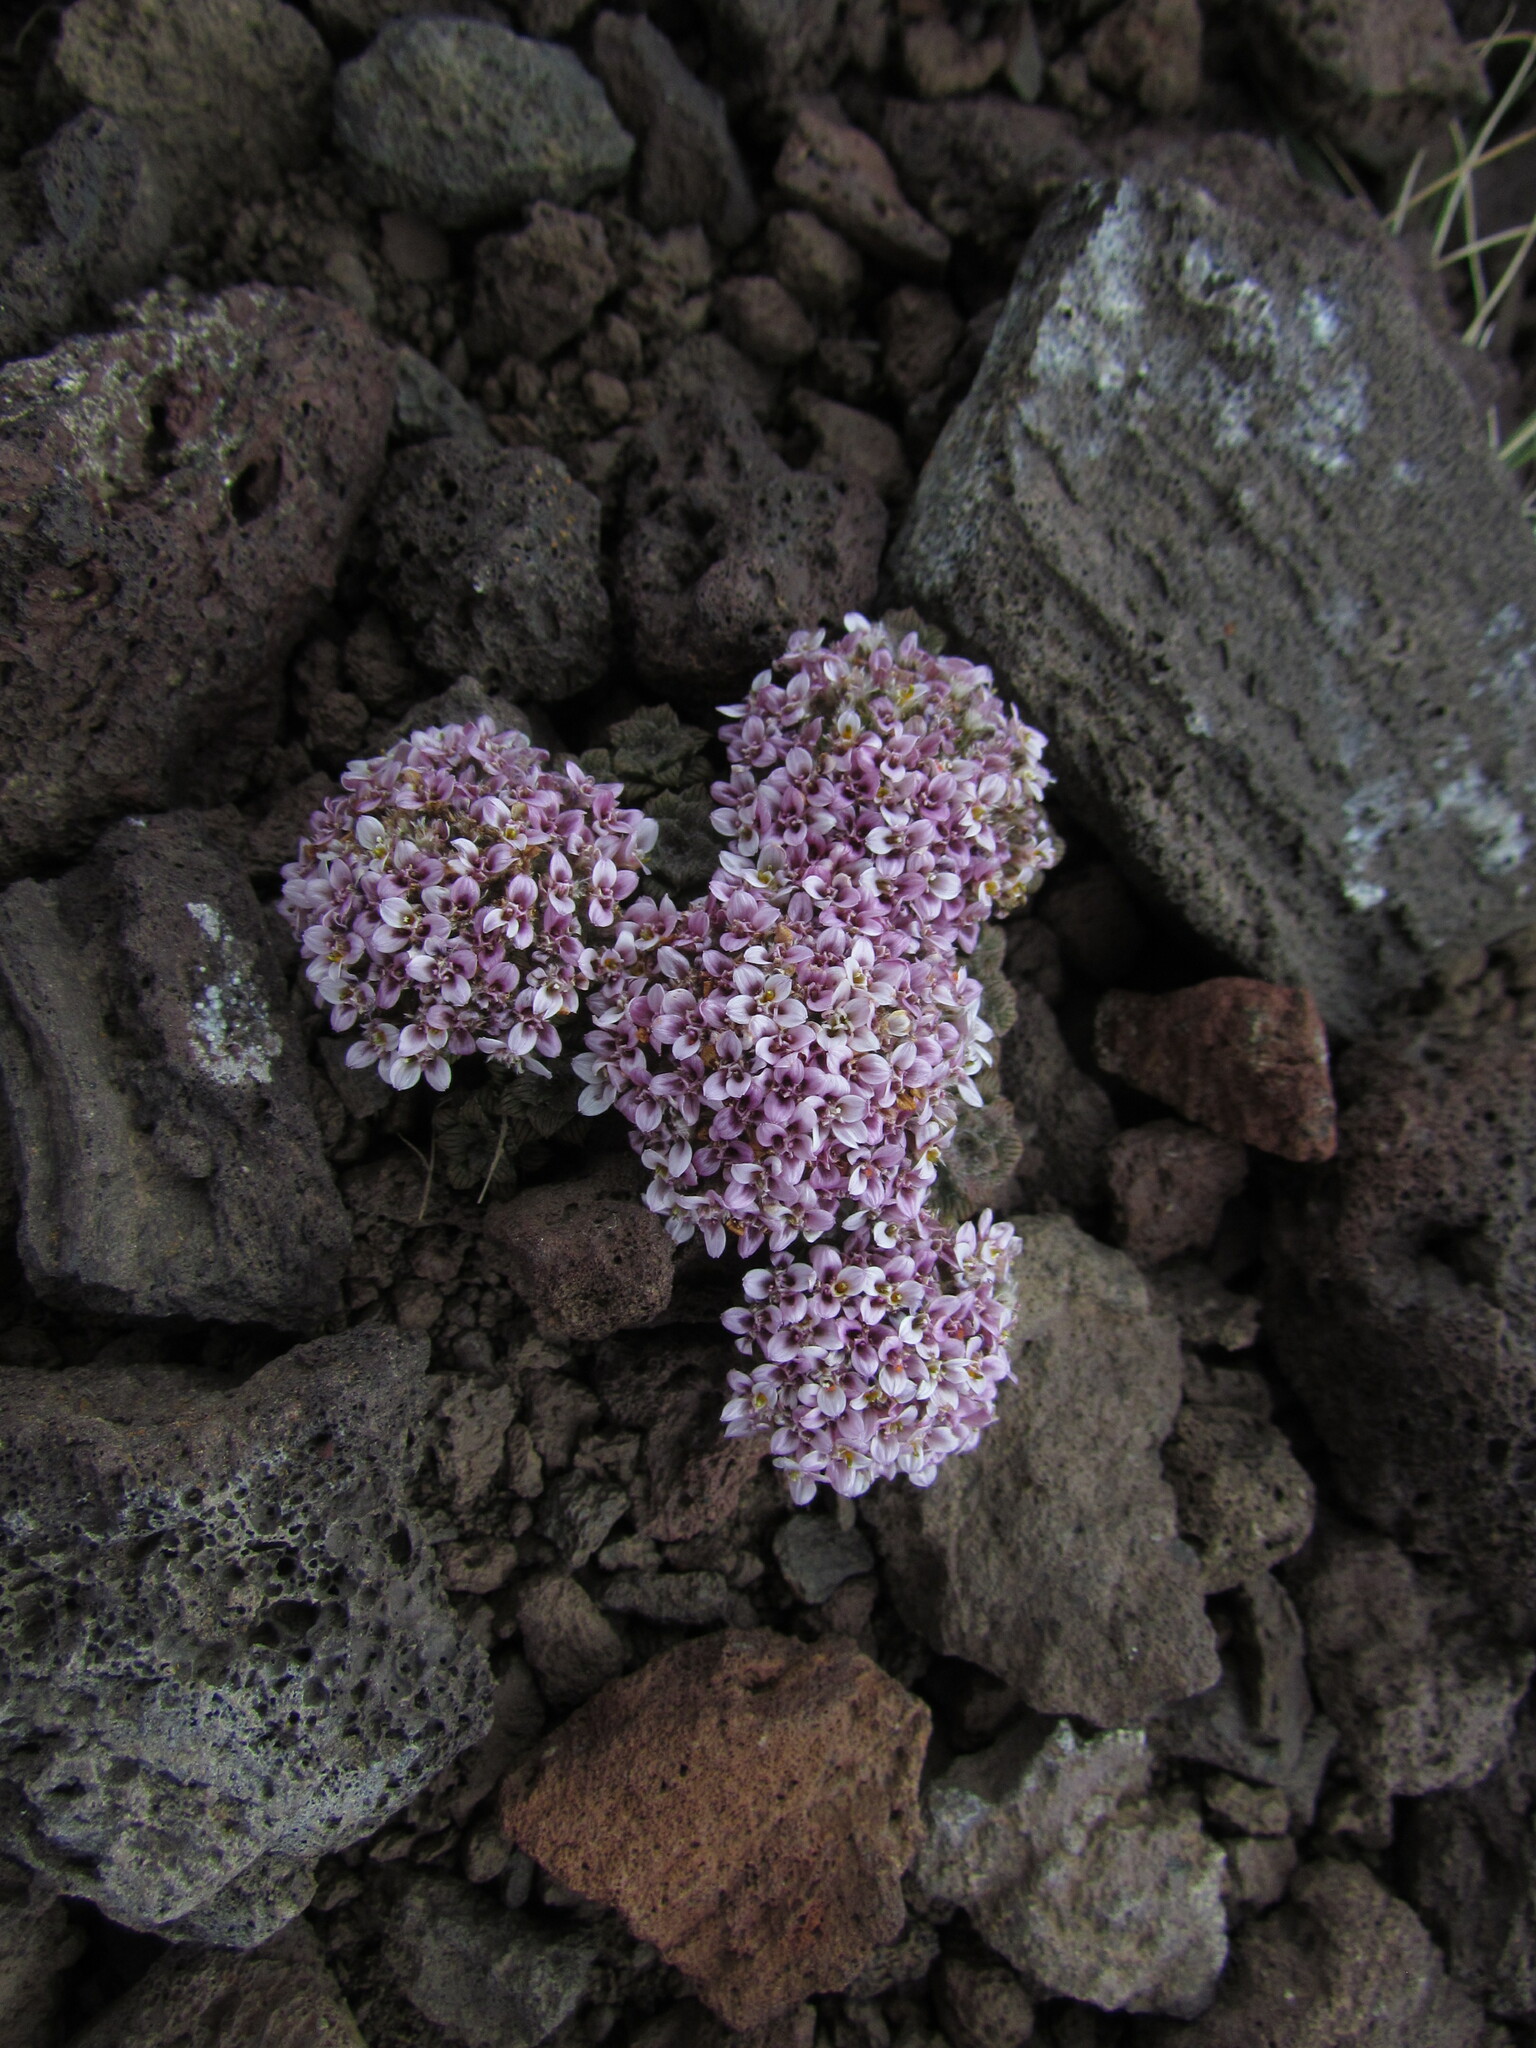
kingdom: Plantae
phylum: Tracheophyta
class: Magnoliopsida
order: Asterales
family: Asteraceae
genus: Nassauvia
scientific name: Nassauvia lagascae
